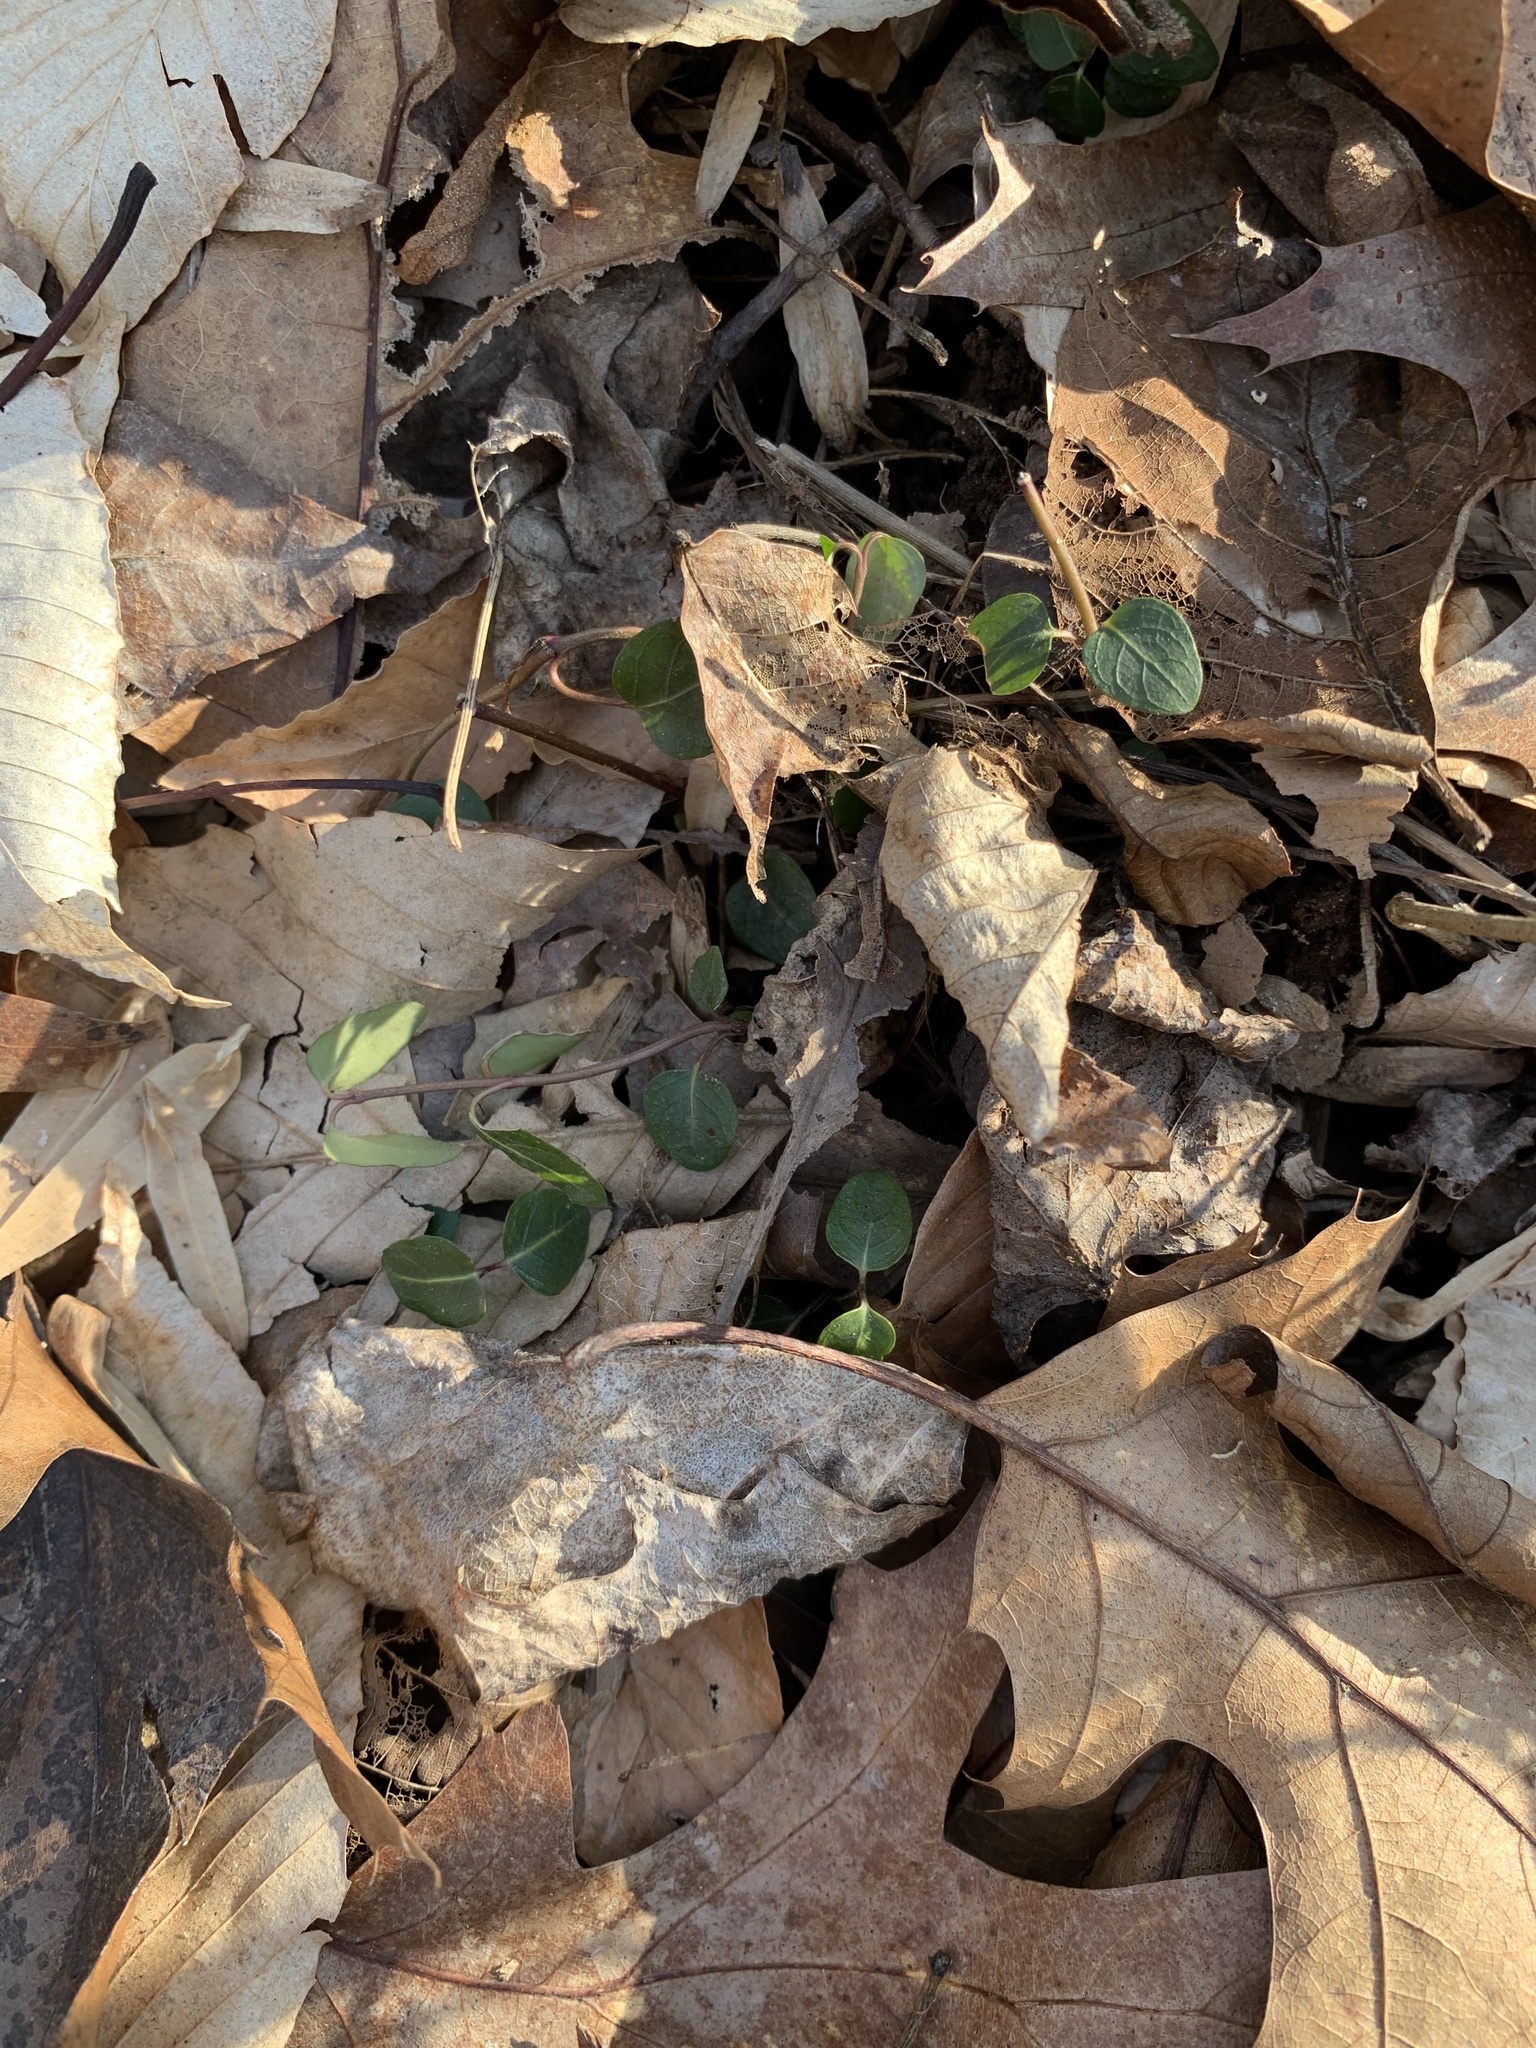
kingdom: Plantae
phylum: Tracheophyta
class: Magnoliopsida
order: Gentianales
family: Rubiaceae
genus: Mitchella
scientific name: Mitchella repens
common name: Partridge-berry
